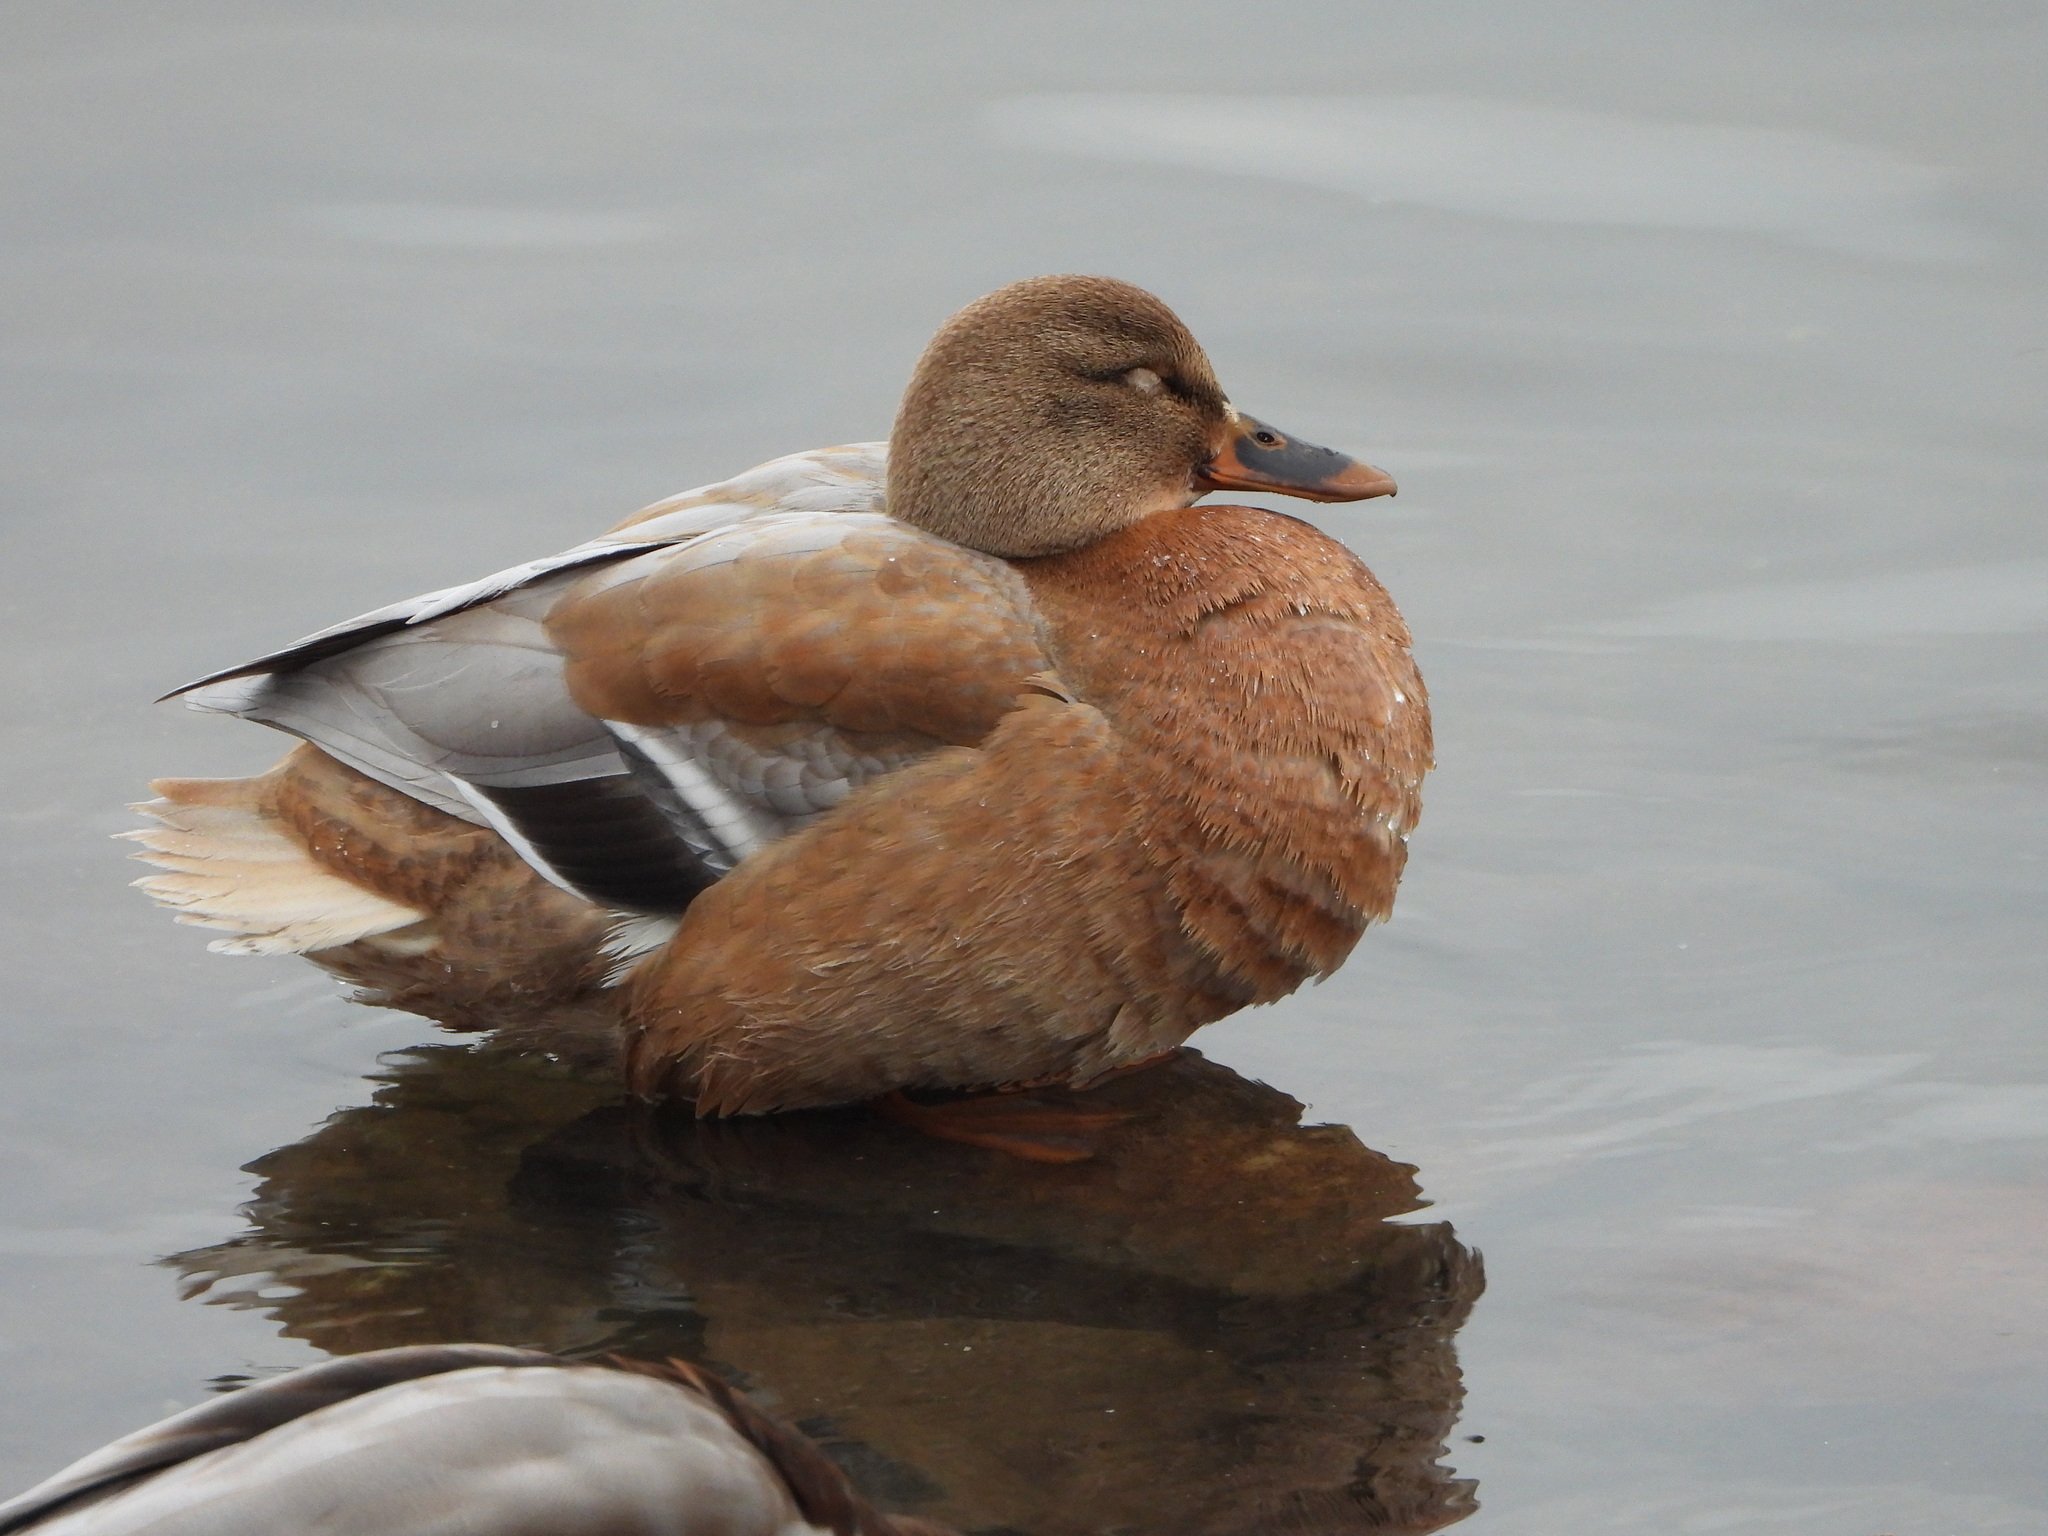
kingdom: Animalia
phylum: Chordata
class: Aves
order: Anseriformes
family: Anatidae
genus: Anas
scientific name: Anas platyrhynchos
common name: Mallard
